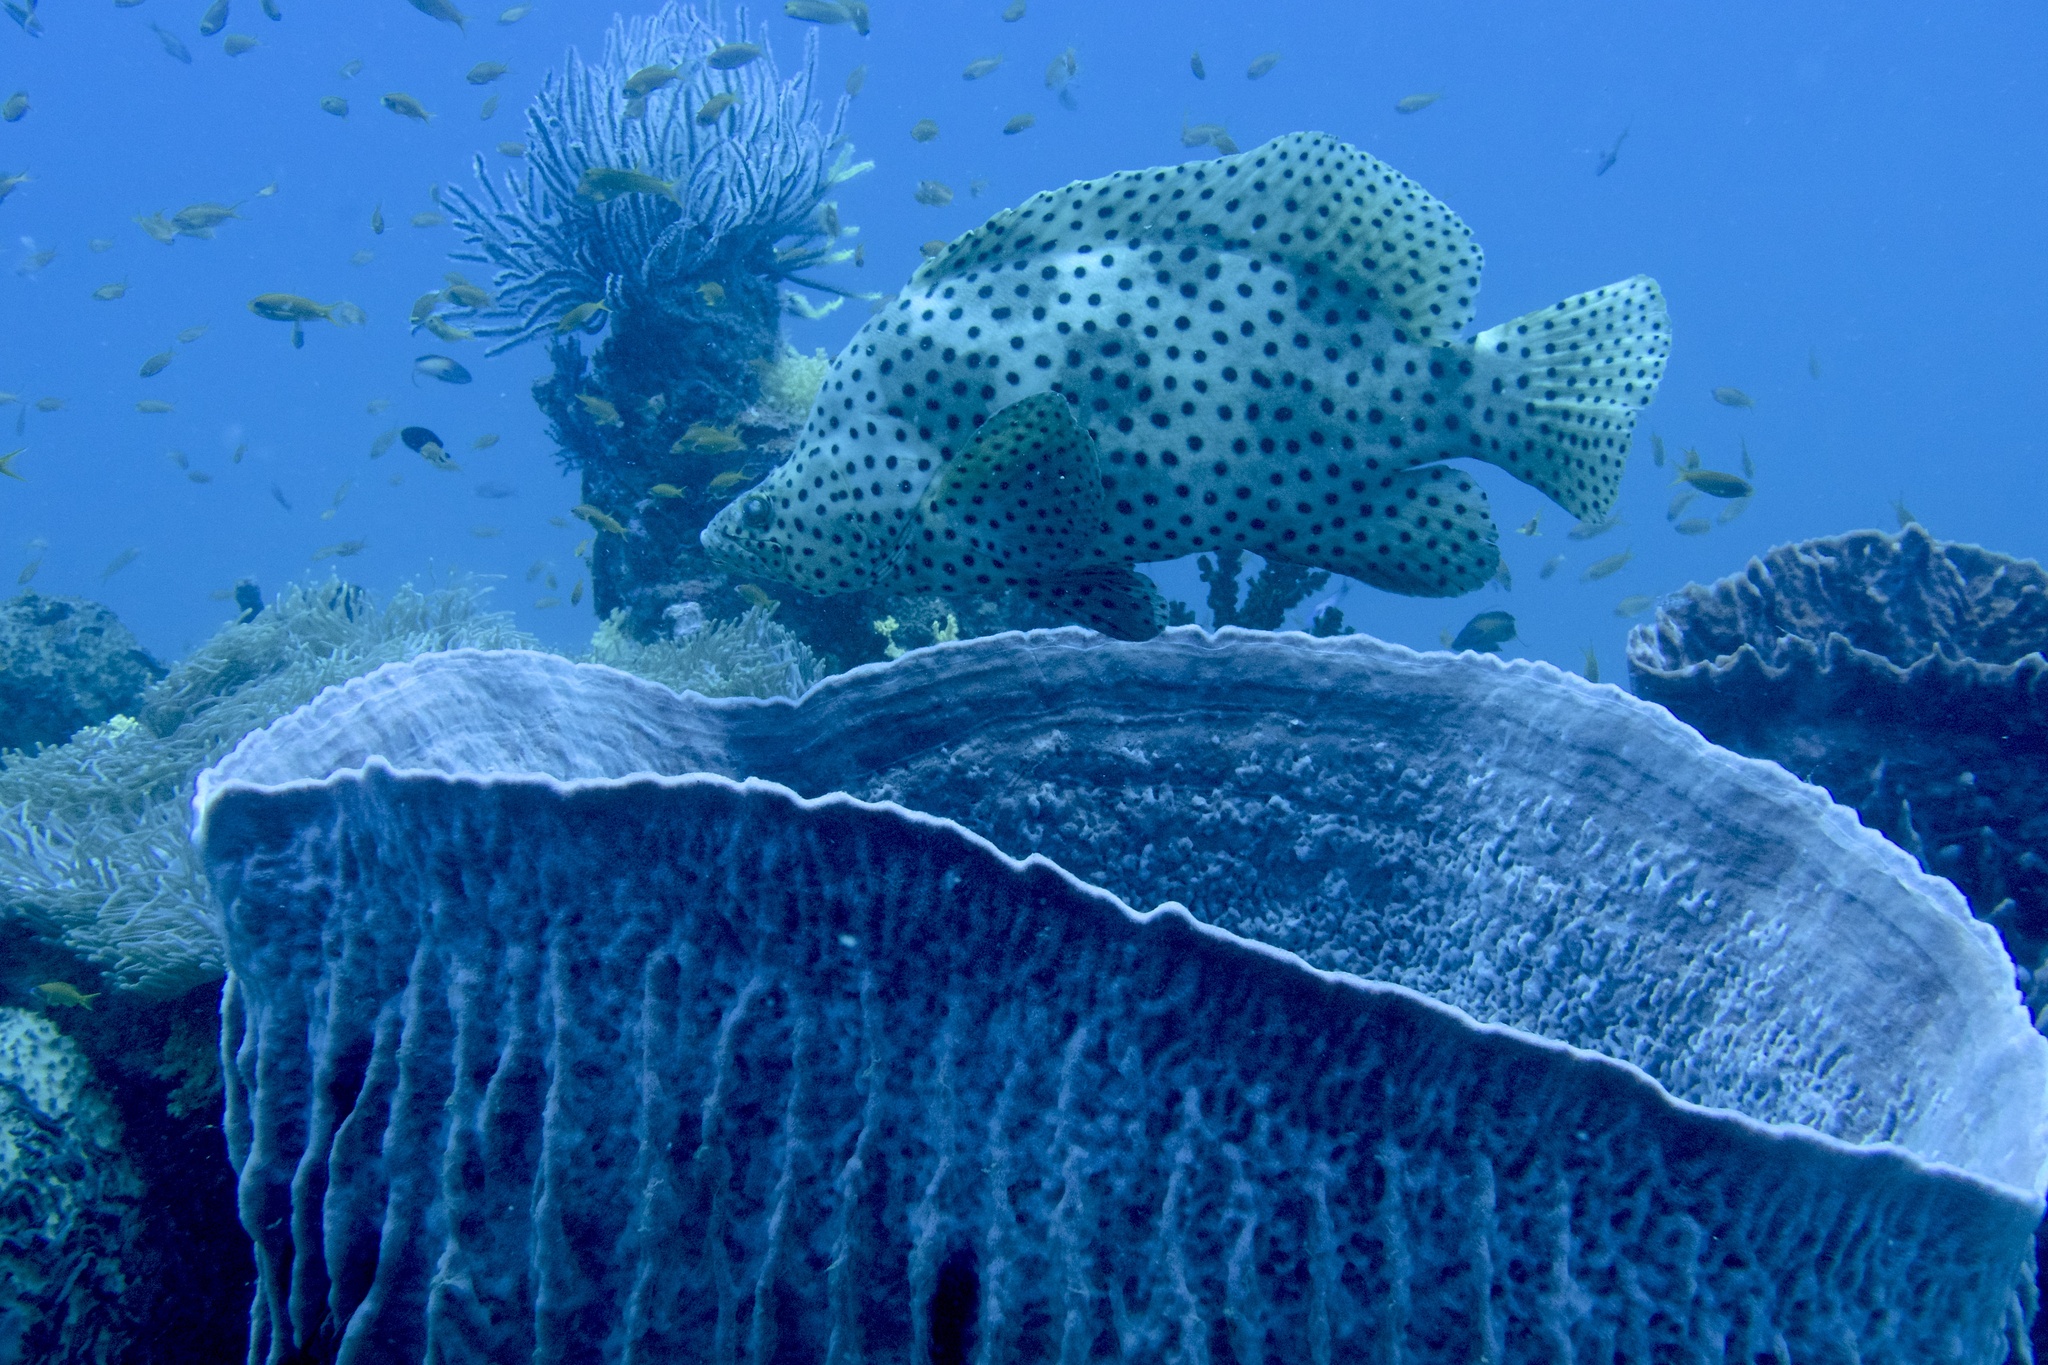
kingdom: Animalia
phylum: Chordata
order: Perciformes
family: Serranidae
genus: Cromileptes
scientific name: Cromileptes altivelis
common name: Humpback grouper
